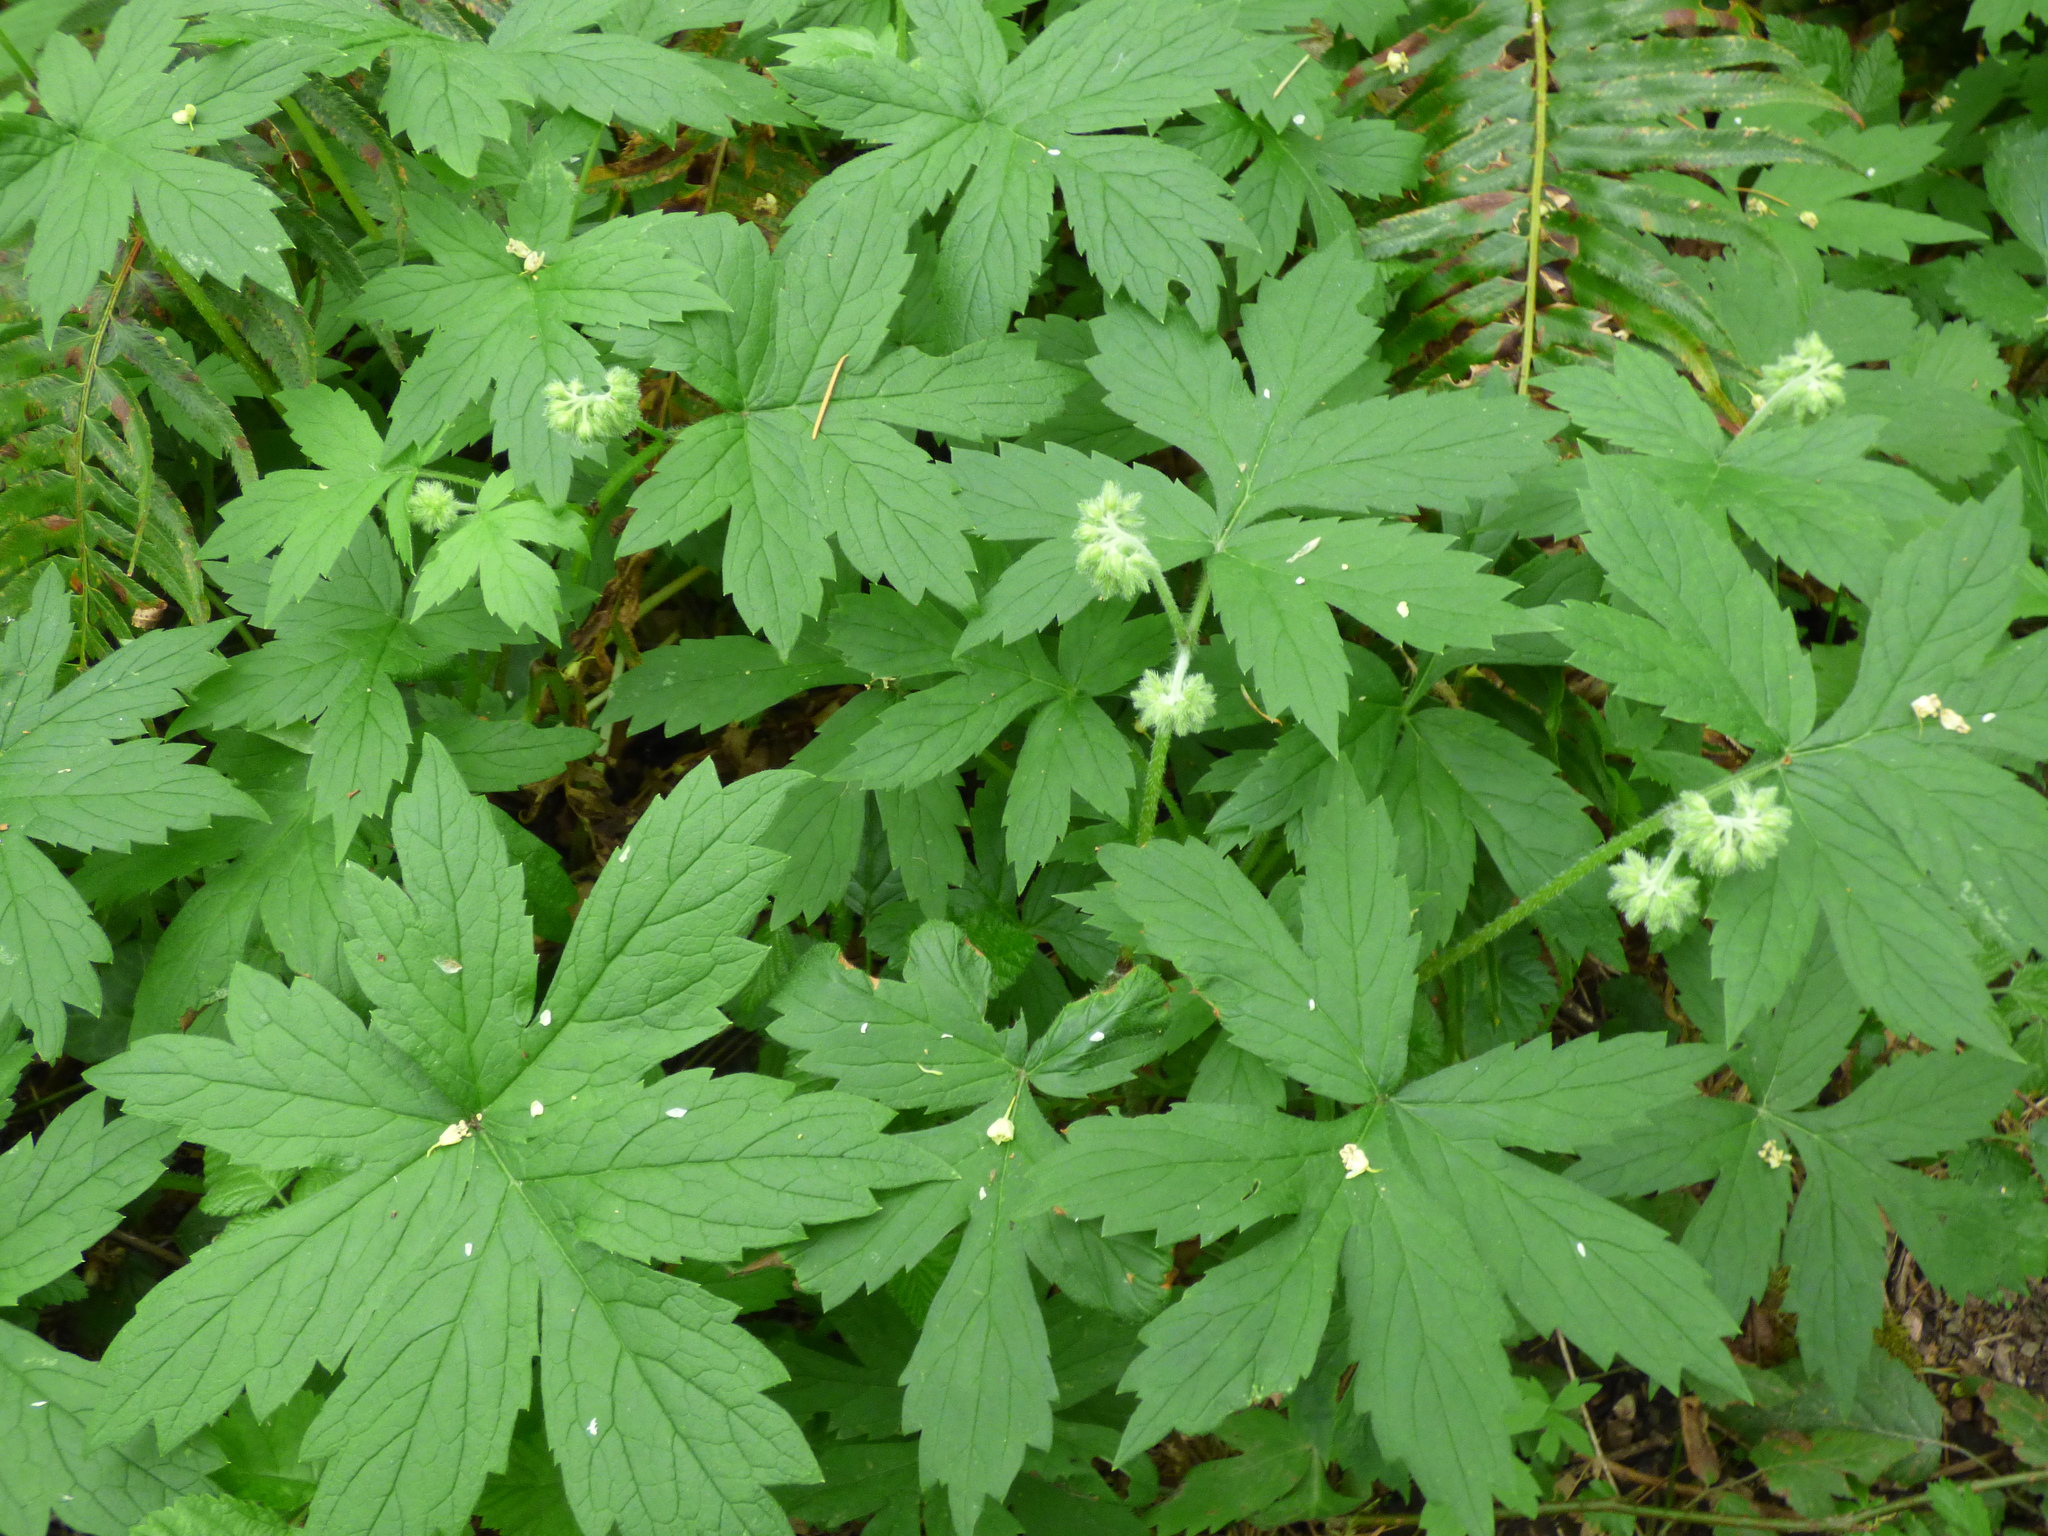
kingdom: Plantae
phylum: Tracheophyta
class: Magnoliopsida
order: Boraginales
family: Hydrophyllaceae
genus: Hydrophyllum
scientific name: Hydrophyllum tenuipes
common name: Pacific waterleaf
